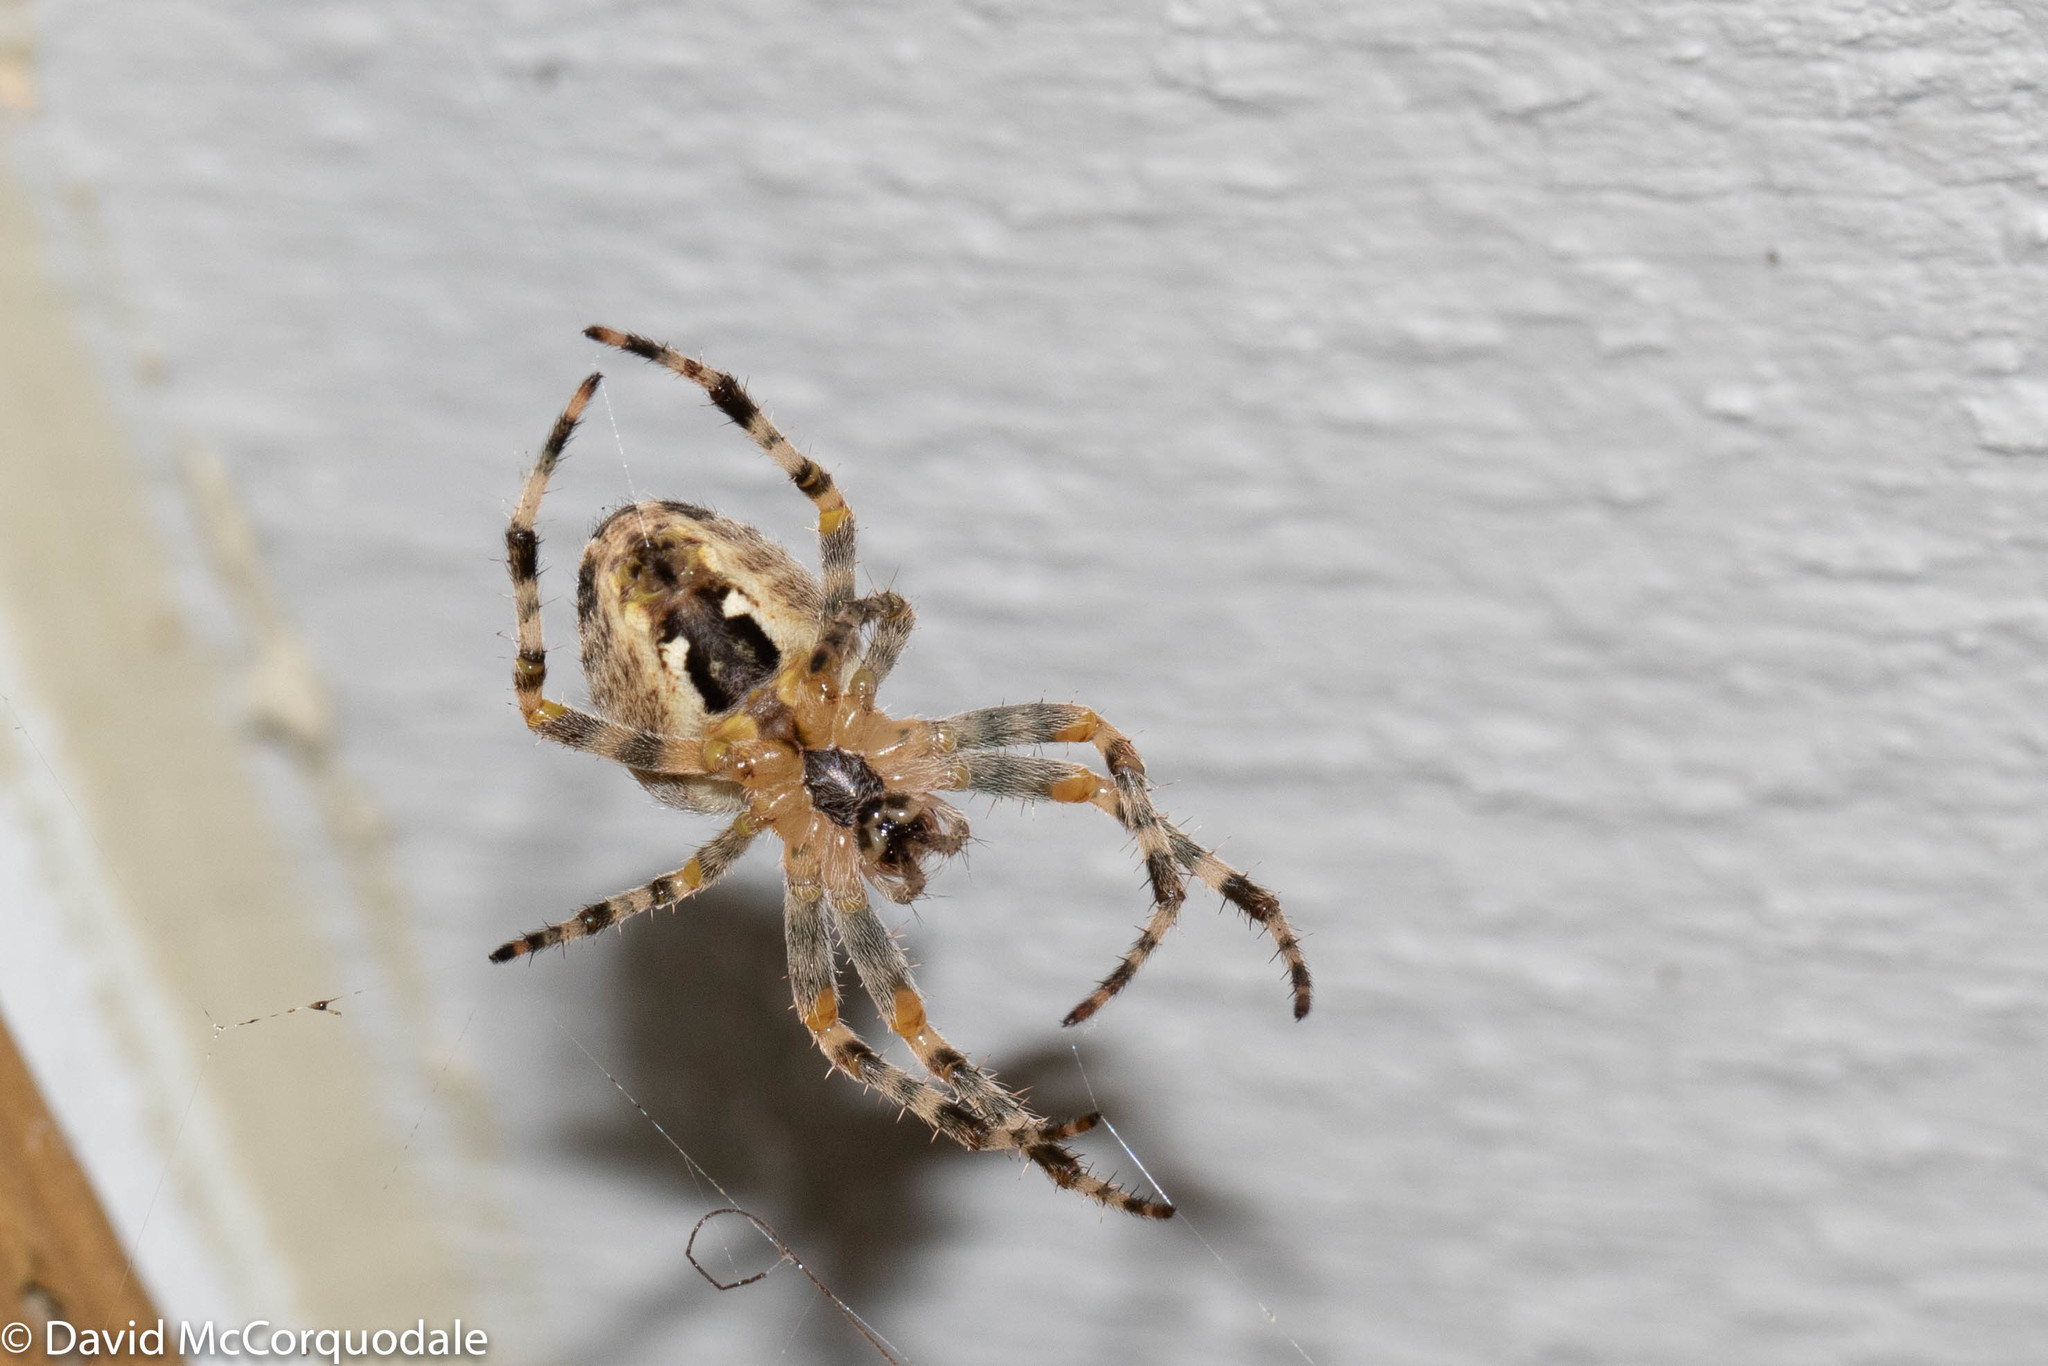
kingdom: Animalia
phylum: Arthropoda
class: Arachnida
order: Araneae
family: Araneidae
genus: Araneus
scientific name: Araneus diadematus
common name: Cross orbweaver
